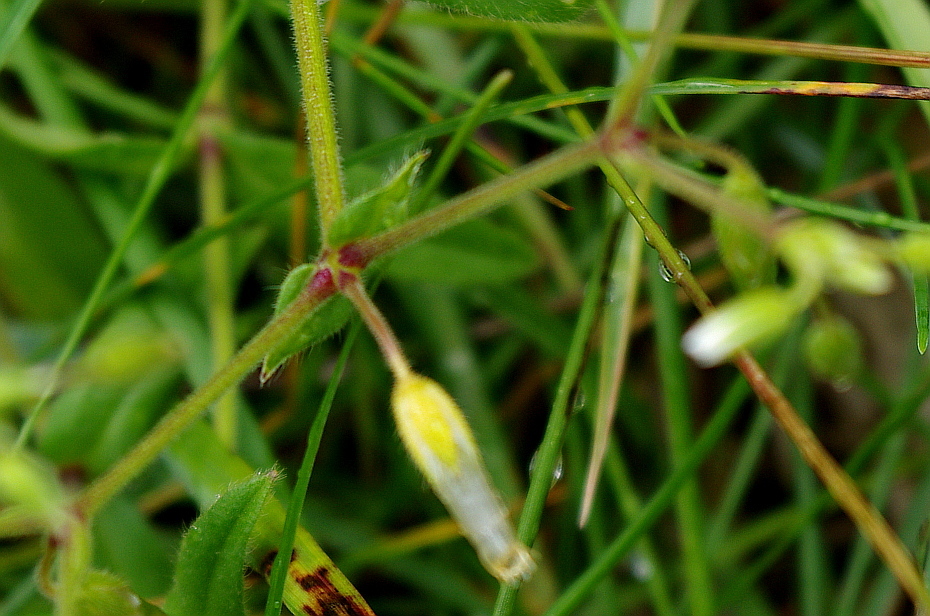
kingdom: Plantae
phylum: Tracheophyta
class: Magnoliopsida
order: Caryophyllales
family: Caryophyllaceae
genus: Cerastium
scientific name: Cerastium holosteoides
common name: Big chickweed
